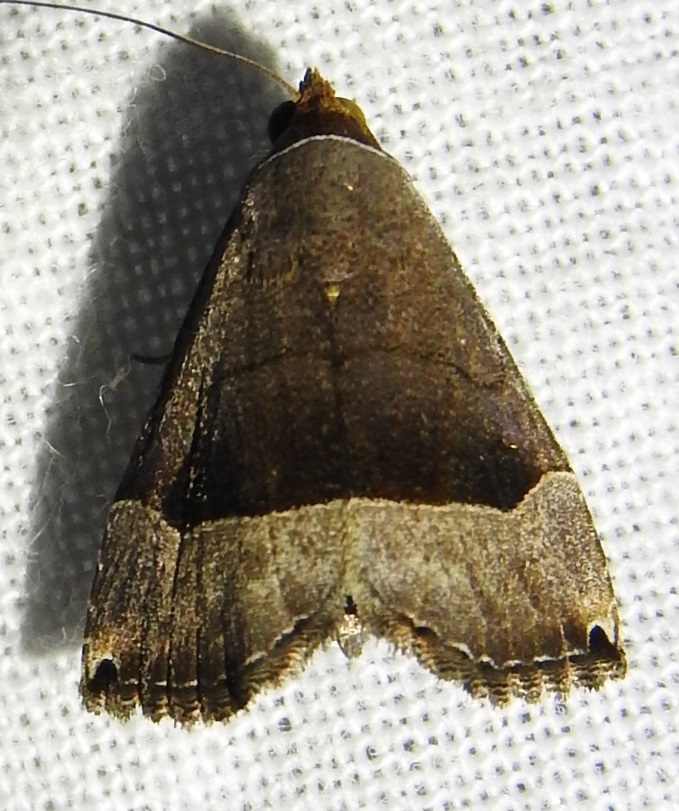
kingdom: Animalia
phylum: Arthropoda
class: Insecta
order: Lepidoptera
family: Noctuidae
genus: Abacena
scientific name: Abacena mundula
